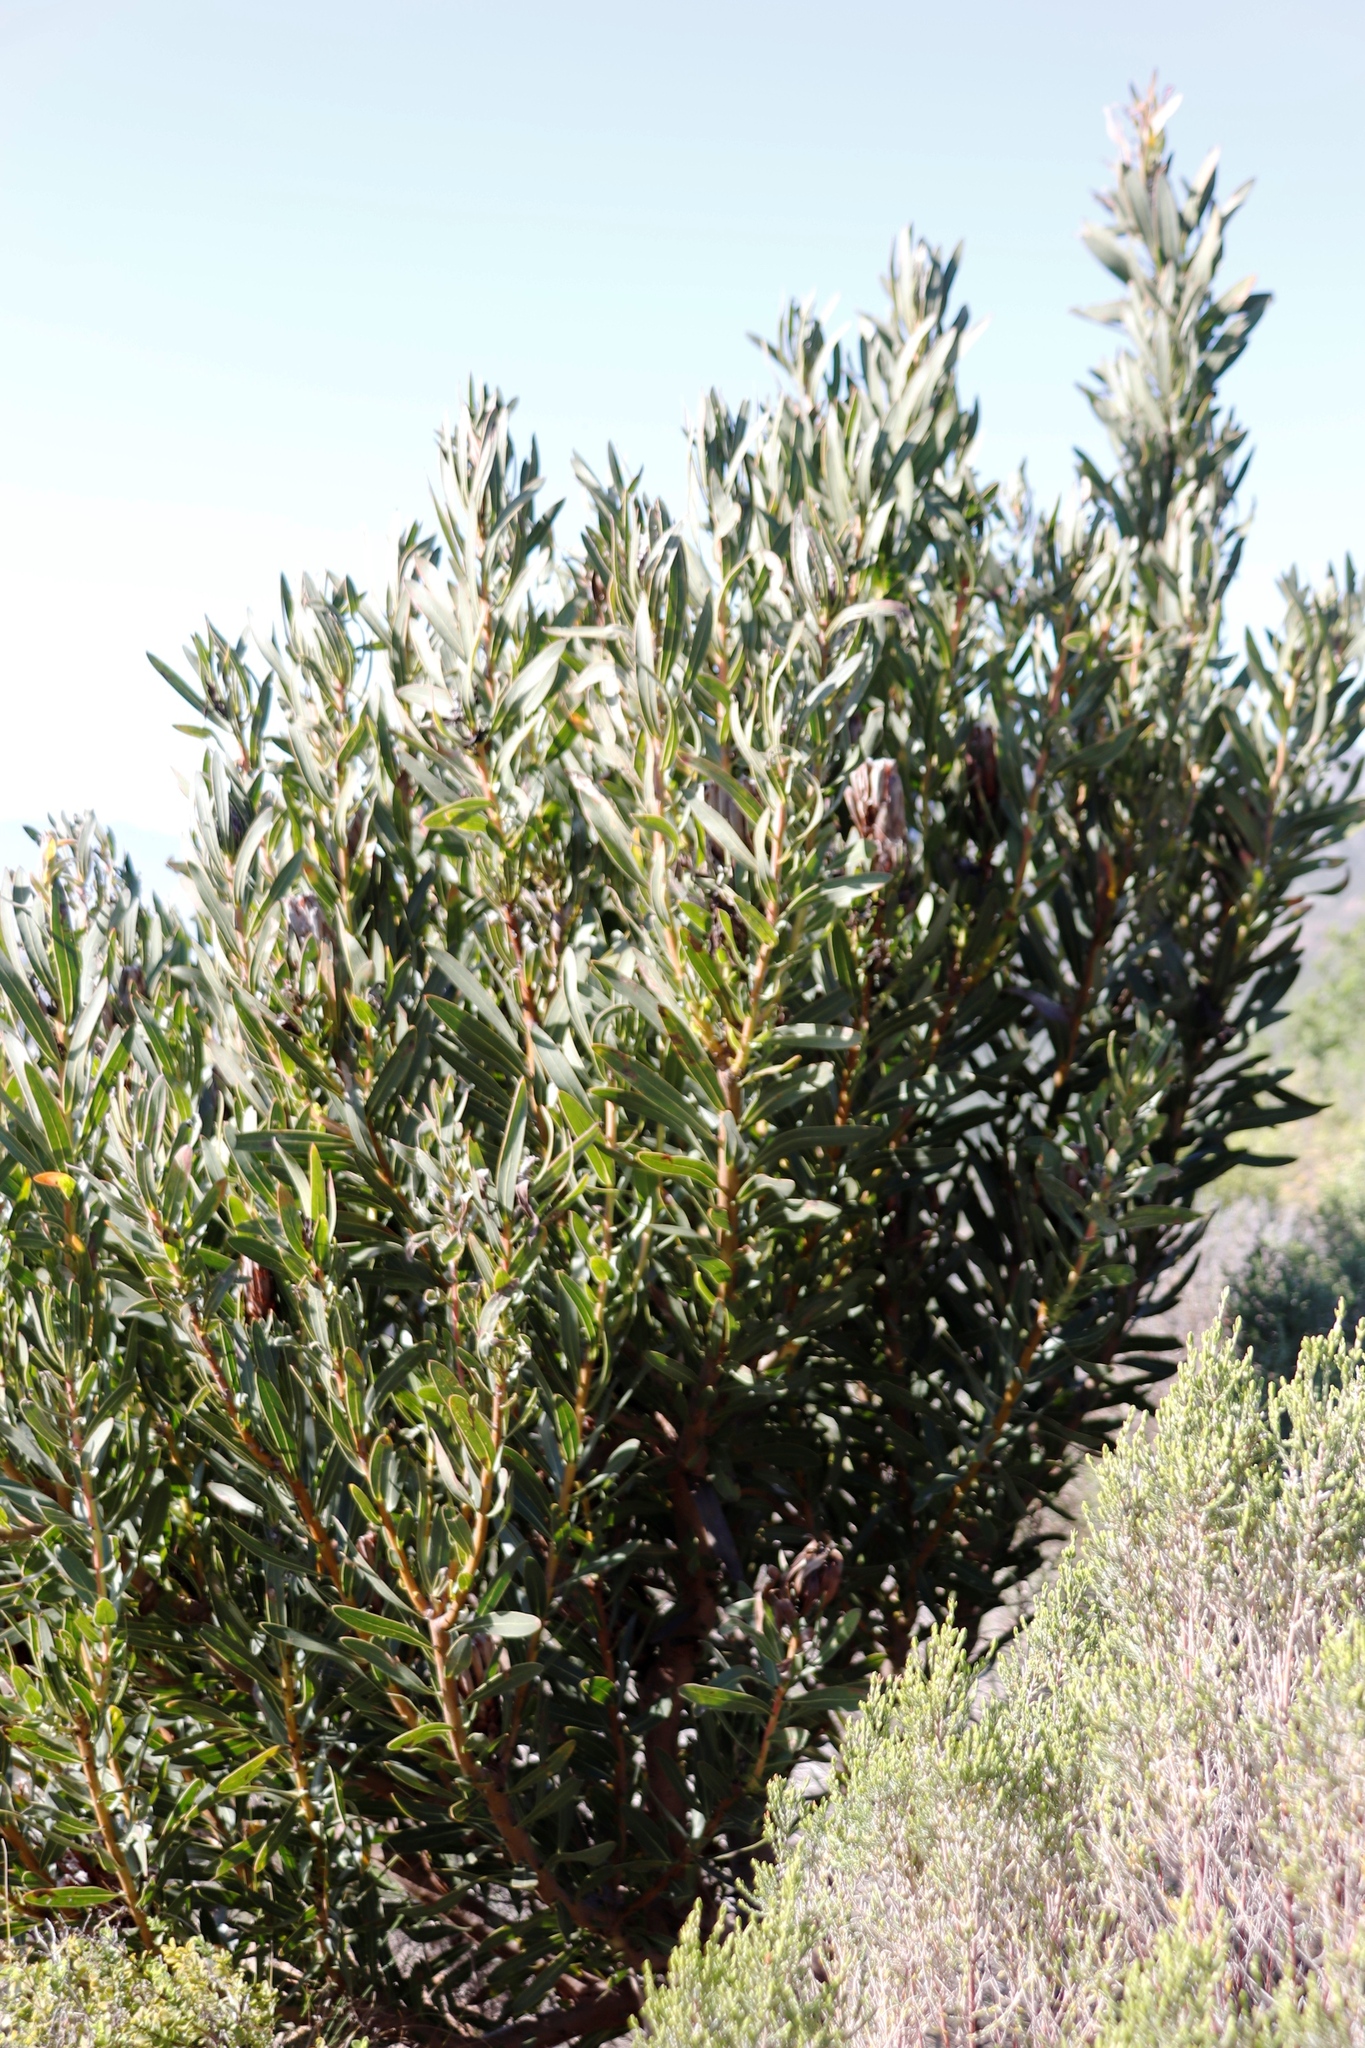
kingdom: Plantae
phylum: Tracheophyta
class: Magnoliopsida
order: Proteales
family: Proteaceae
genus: Protea
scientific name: Protea lepidocarpodendron
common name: Black-bearded protea
